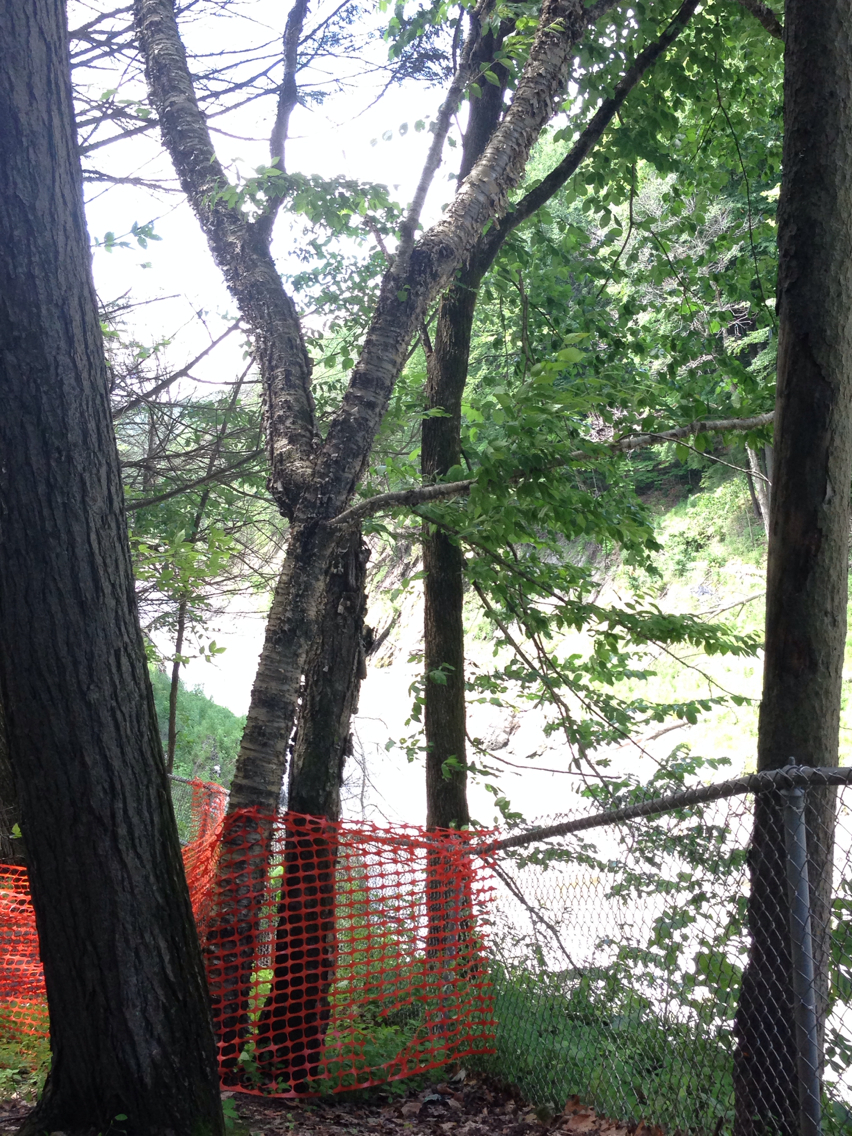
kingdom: Plantae
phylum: Tracheophyta
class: Magnoliopsida
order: Fagales
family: Betulaceae
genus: Betula
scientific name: Betula alleghaniensis
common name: Yellow birch
